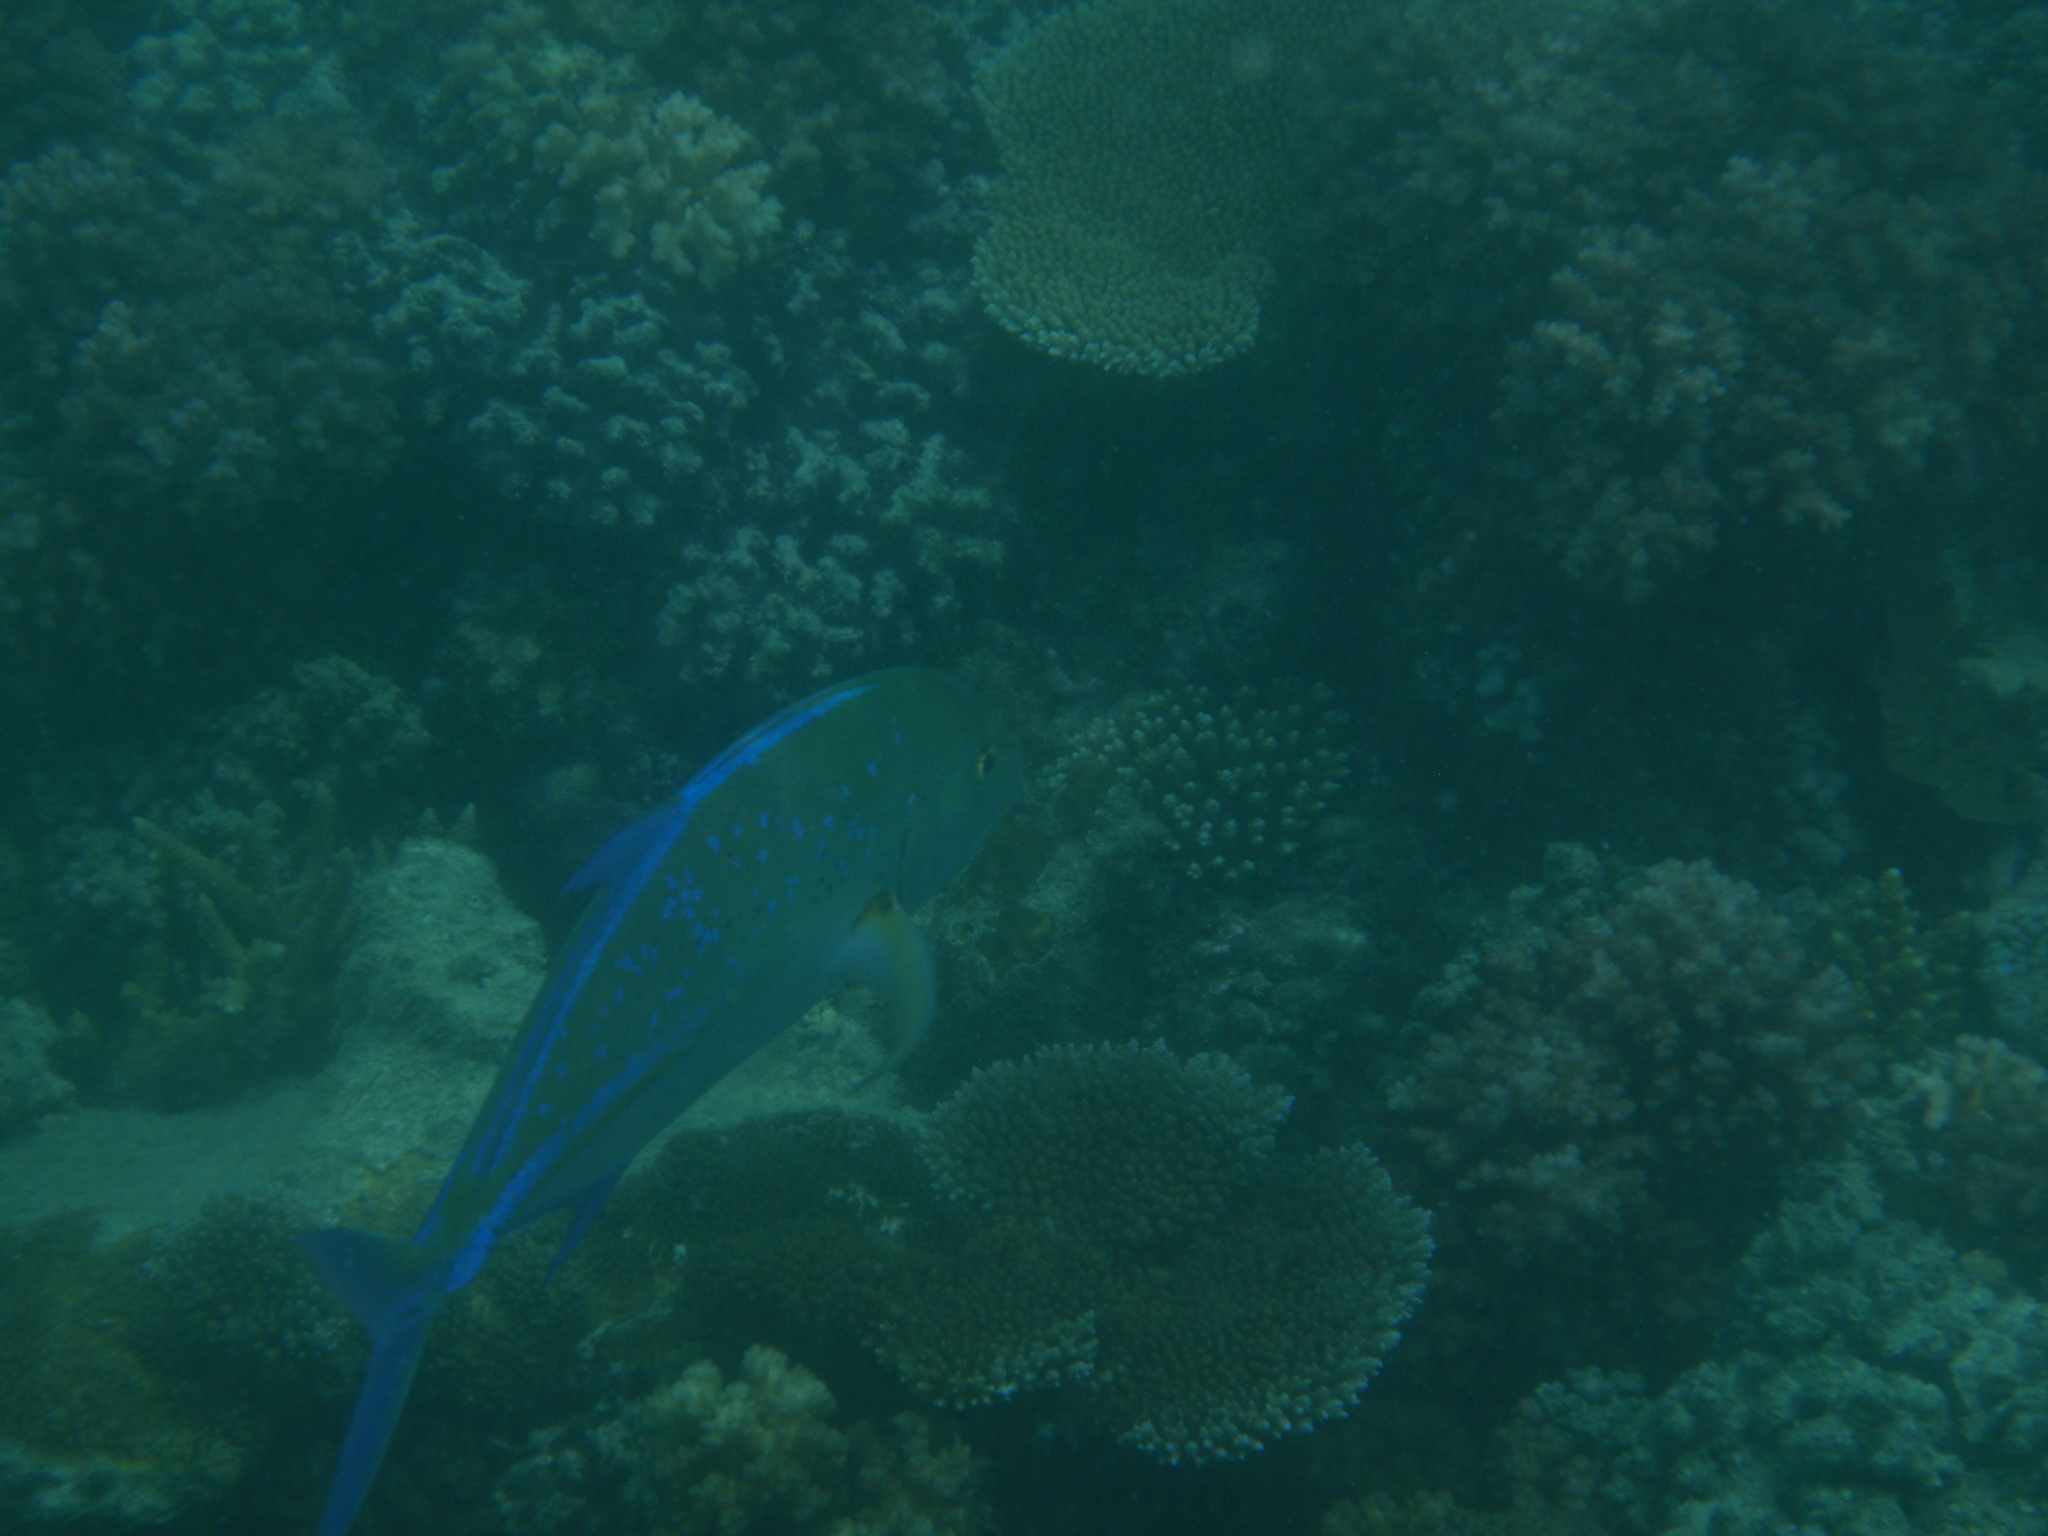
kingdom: Animalia
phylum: Chordata
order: Perciformes
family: Carangidae
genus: Caranx
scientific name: Caranx melampygus
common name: Bluefin trevally
